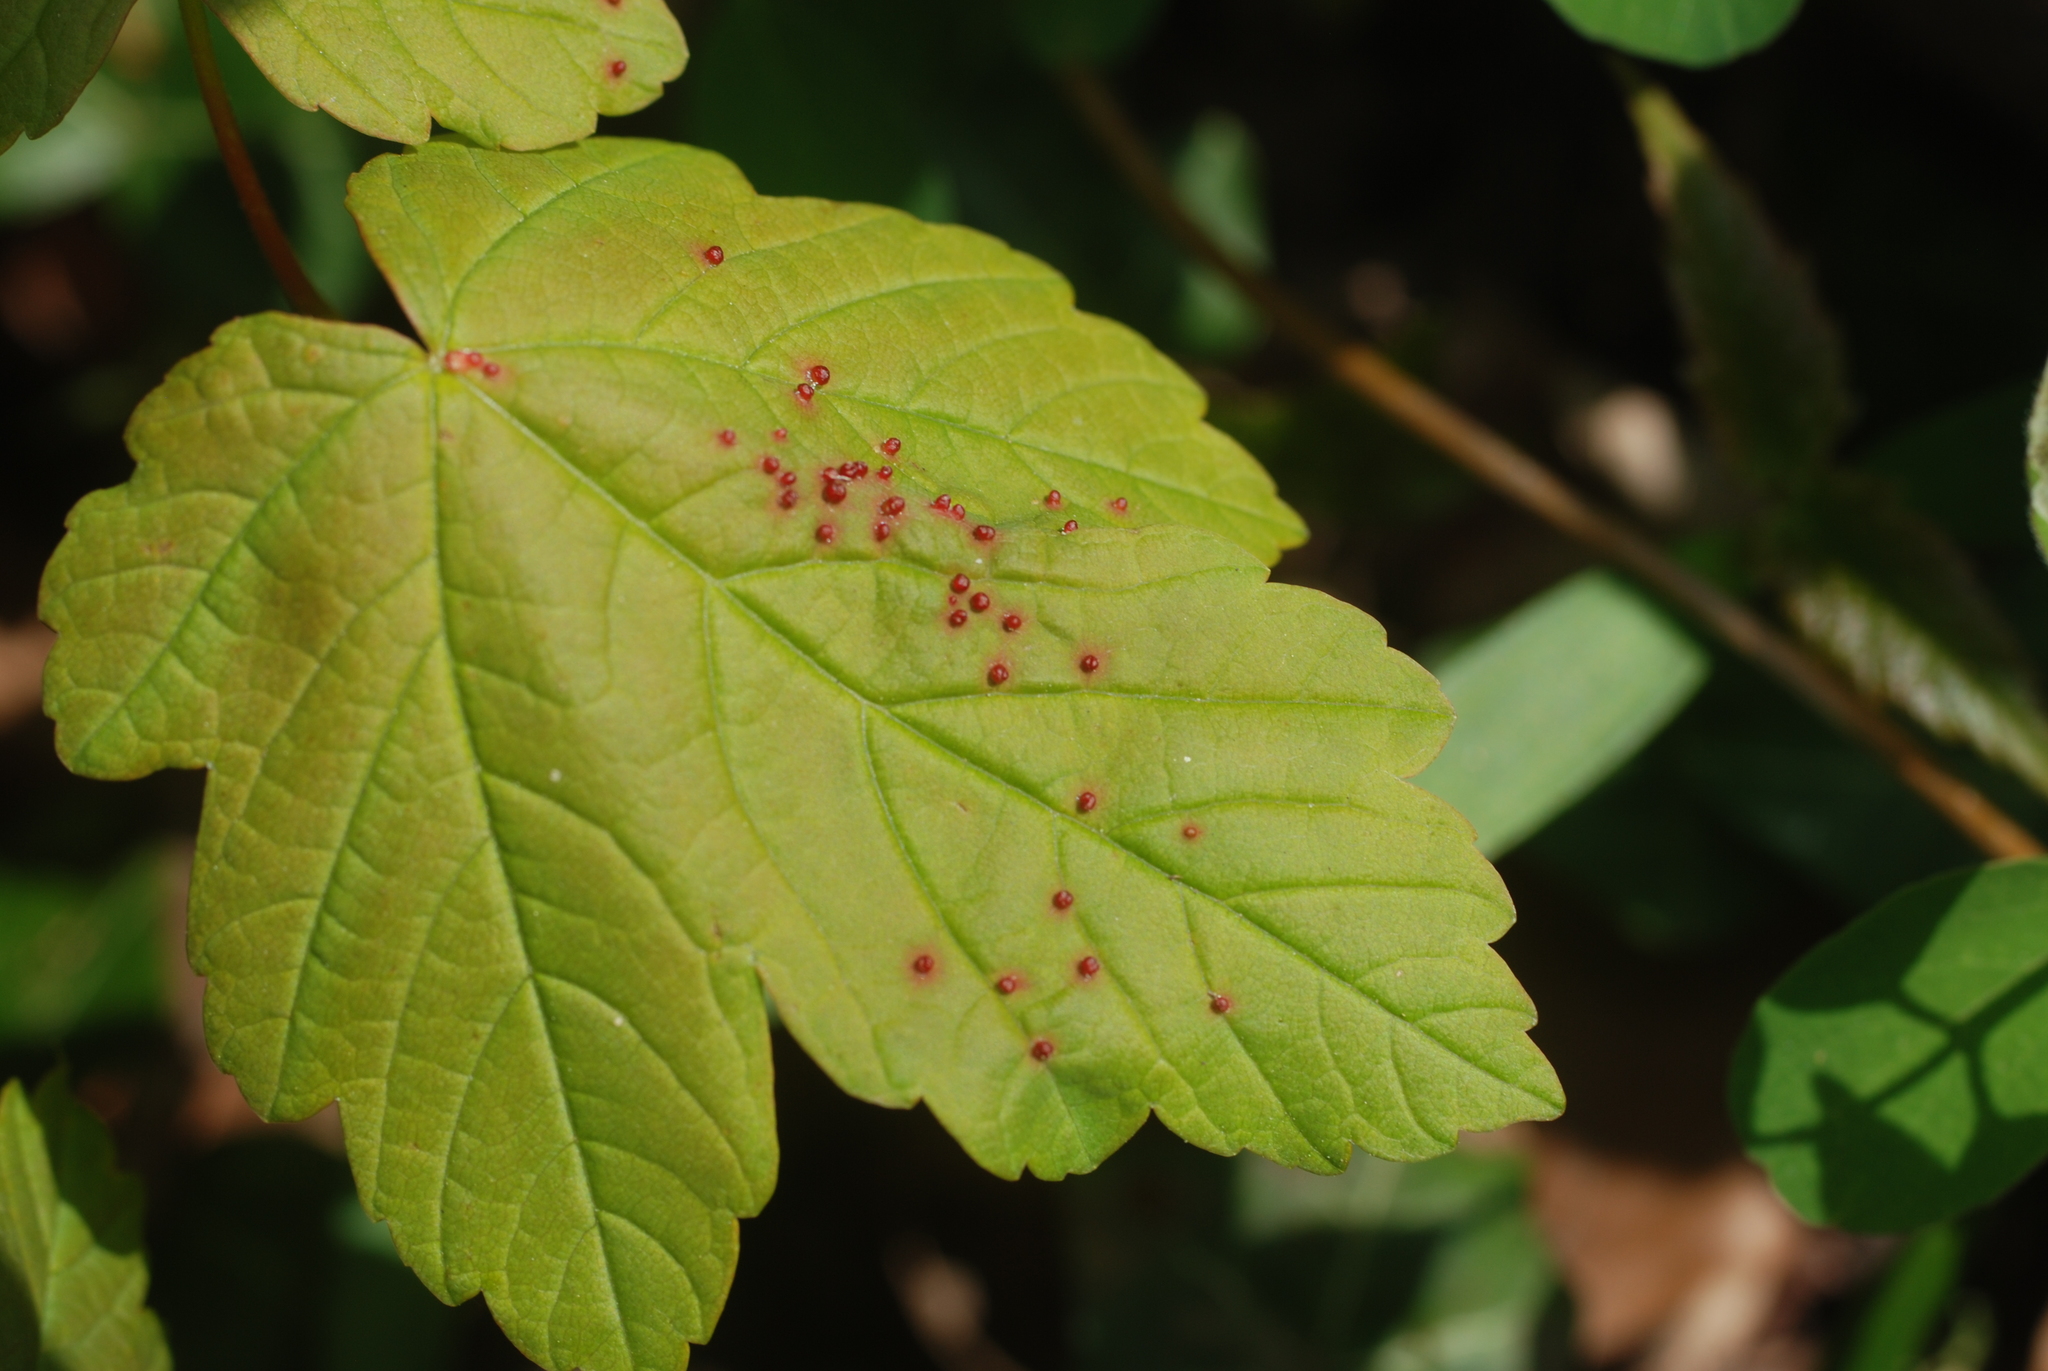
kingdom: Animalia
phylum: Arthropoda
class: Arachnida
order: Trombidiformes
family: Eriophyidae
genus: Aceria
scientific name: Aceria cephaloneus
